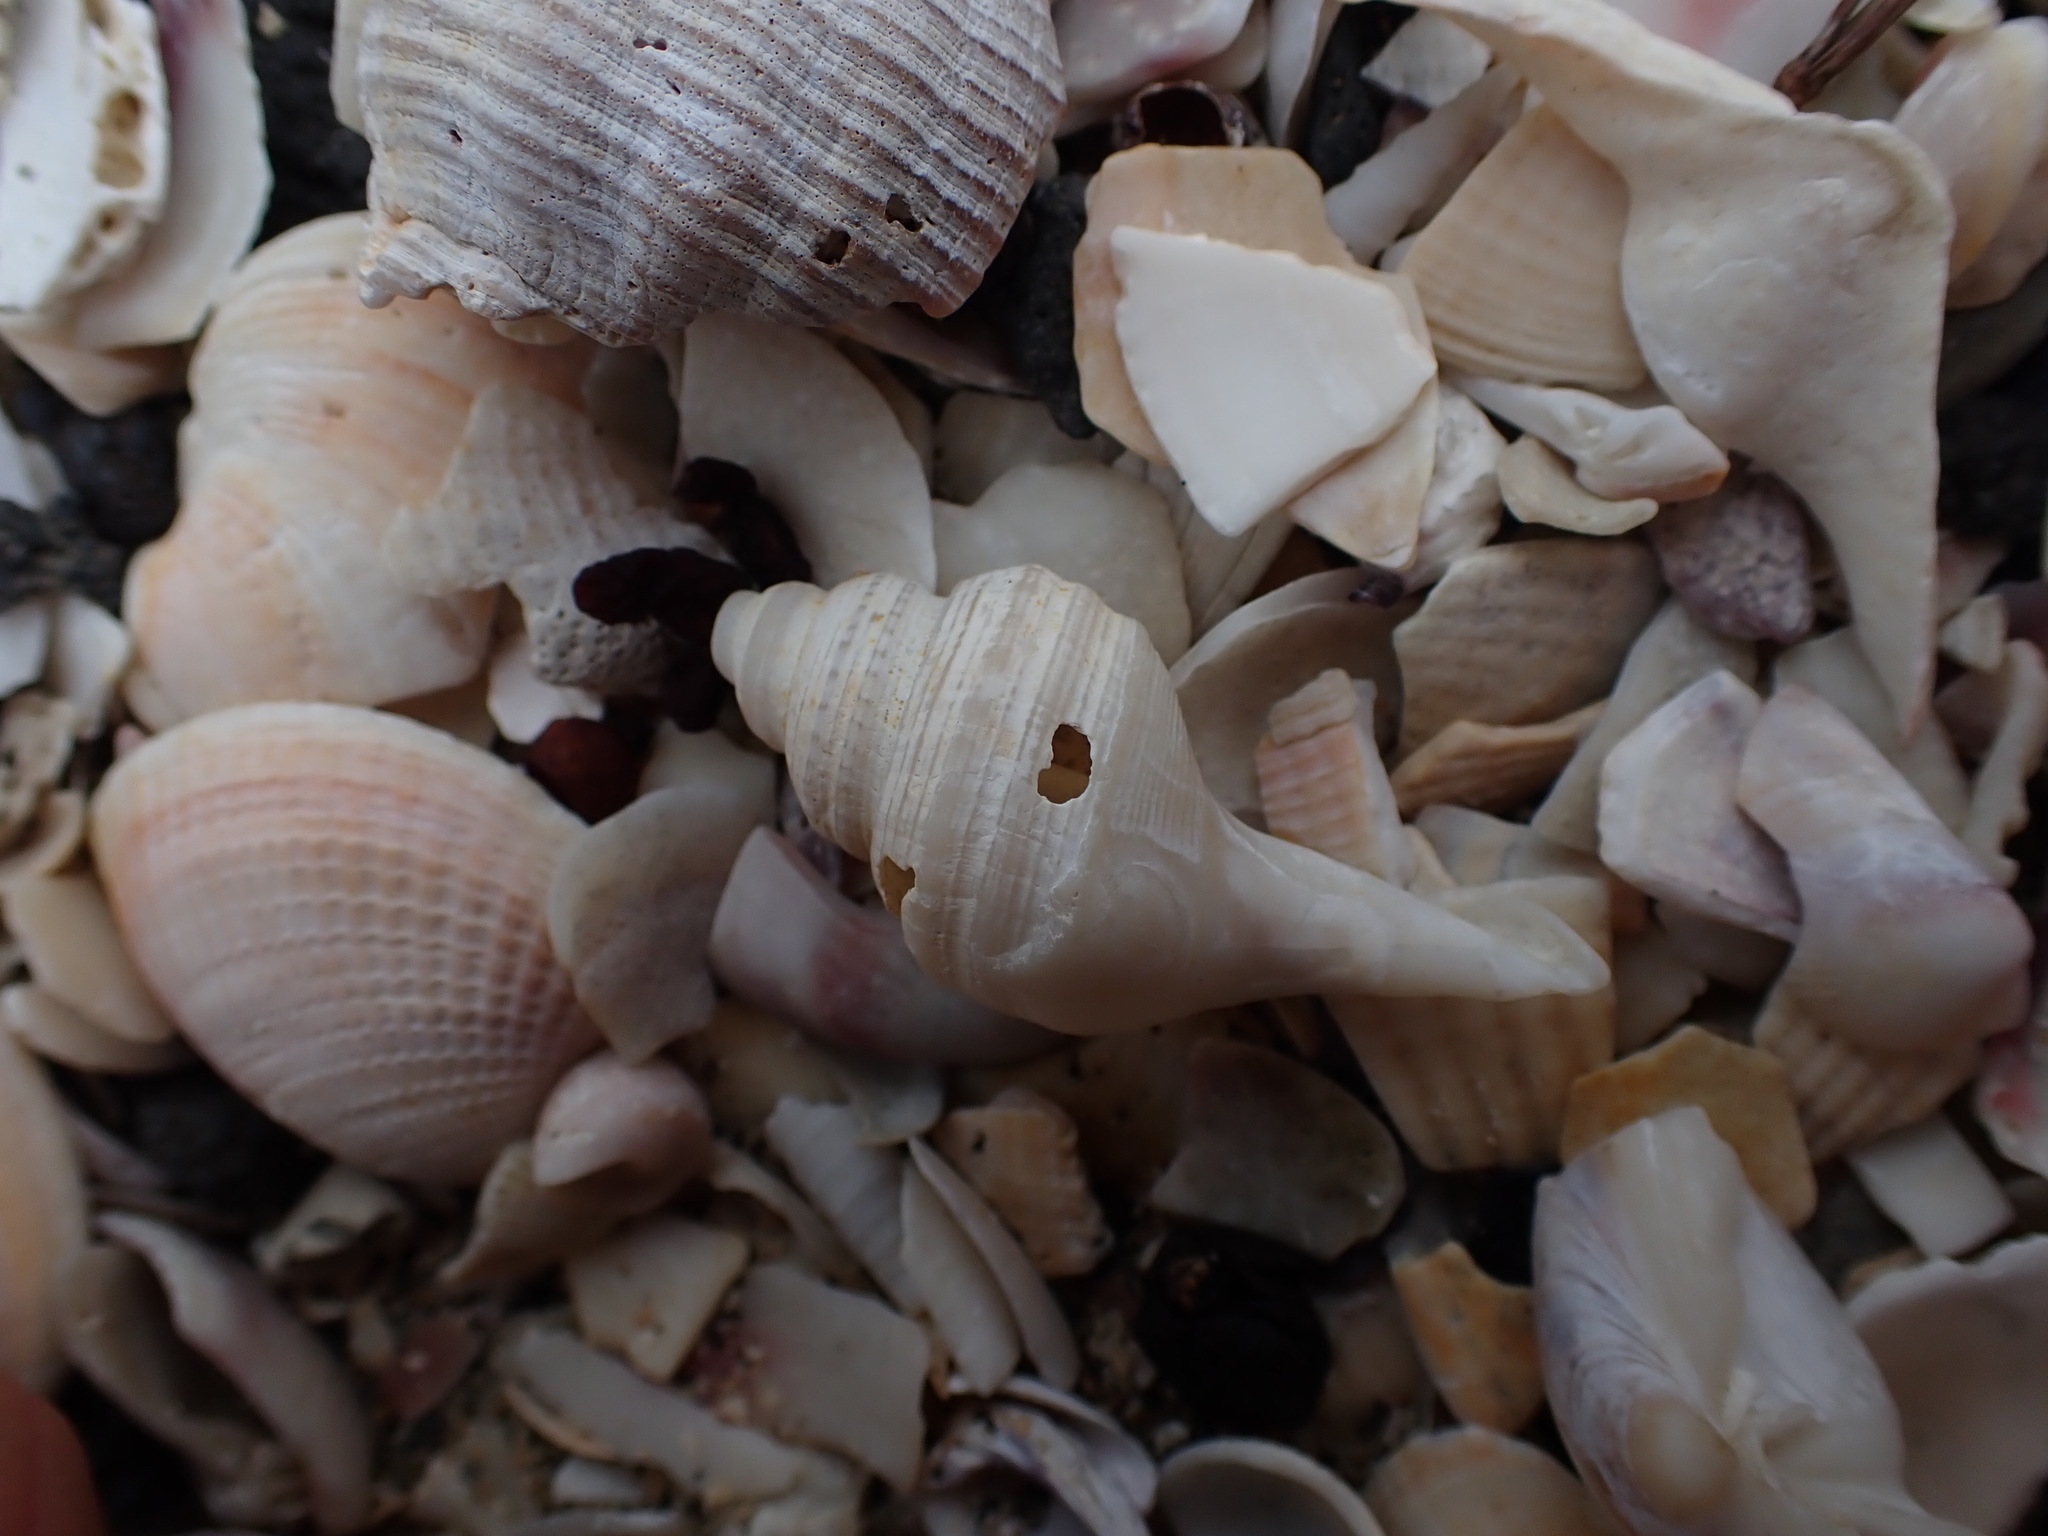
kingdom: Animalia
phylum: Mollusca
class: Gastropoda
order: Littorinimorpha
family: Struthiolariidae
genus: Pelicaria
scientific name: Pelicaria vermis
